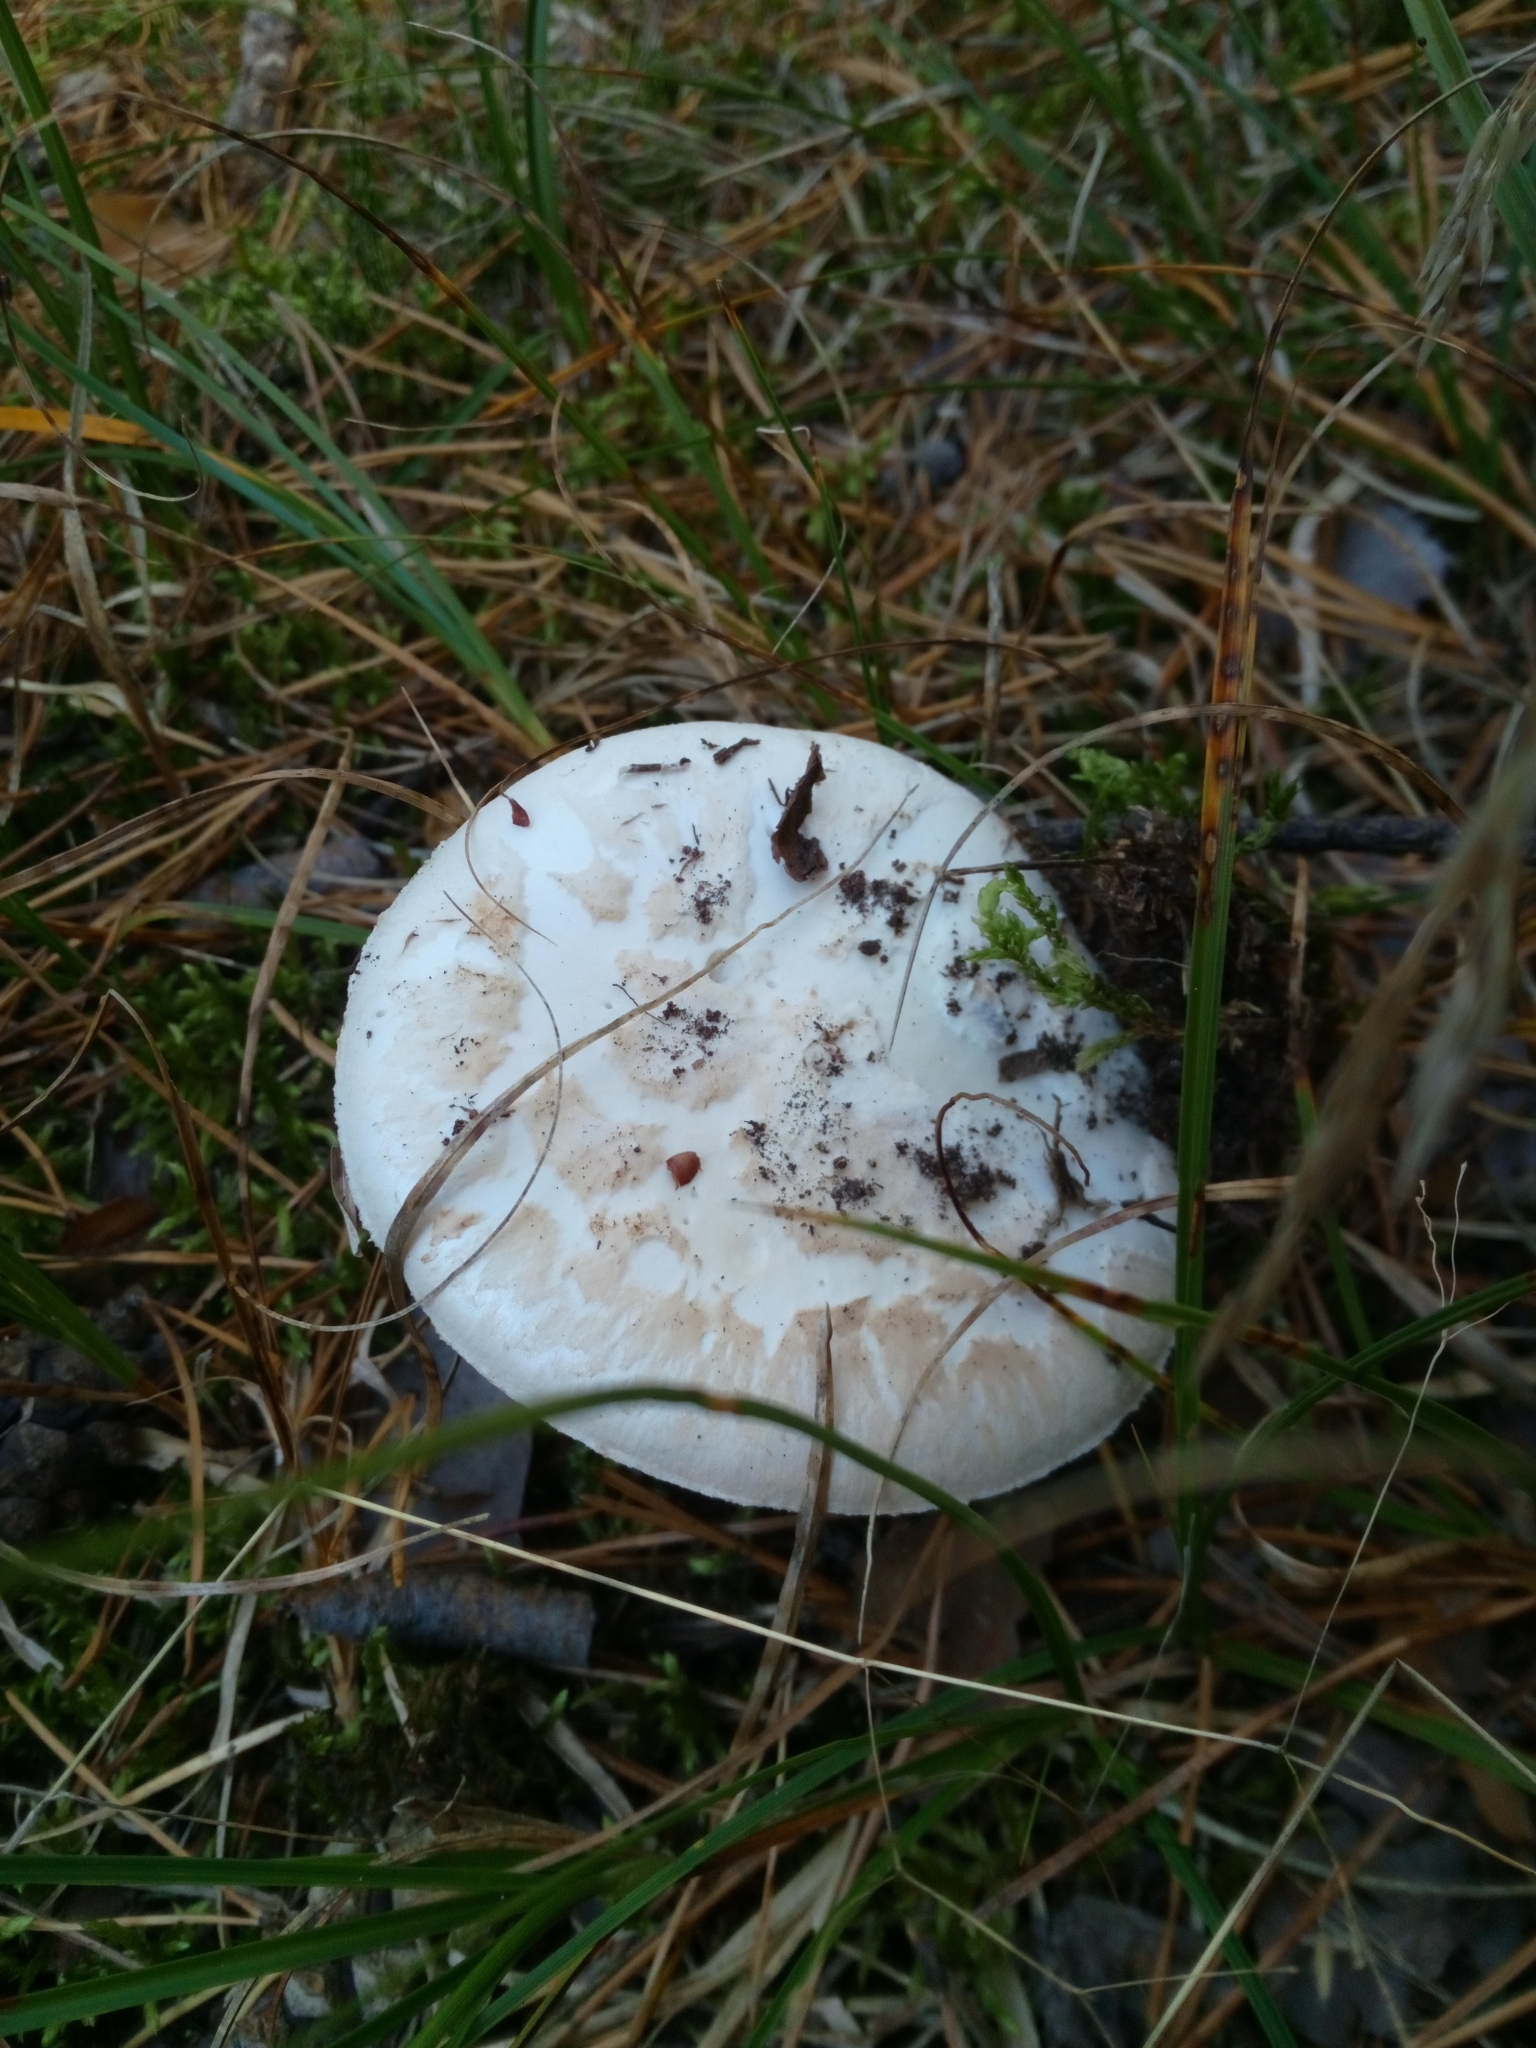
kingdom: Fungi
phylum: Basidiomycota
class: Agaricomycetes
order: Agaricales
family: Amanitaceae
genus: Amanita
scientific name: Amanita citrina
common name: False death-cap
